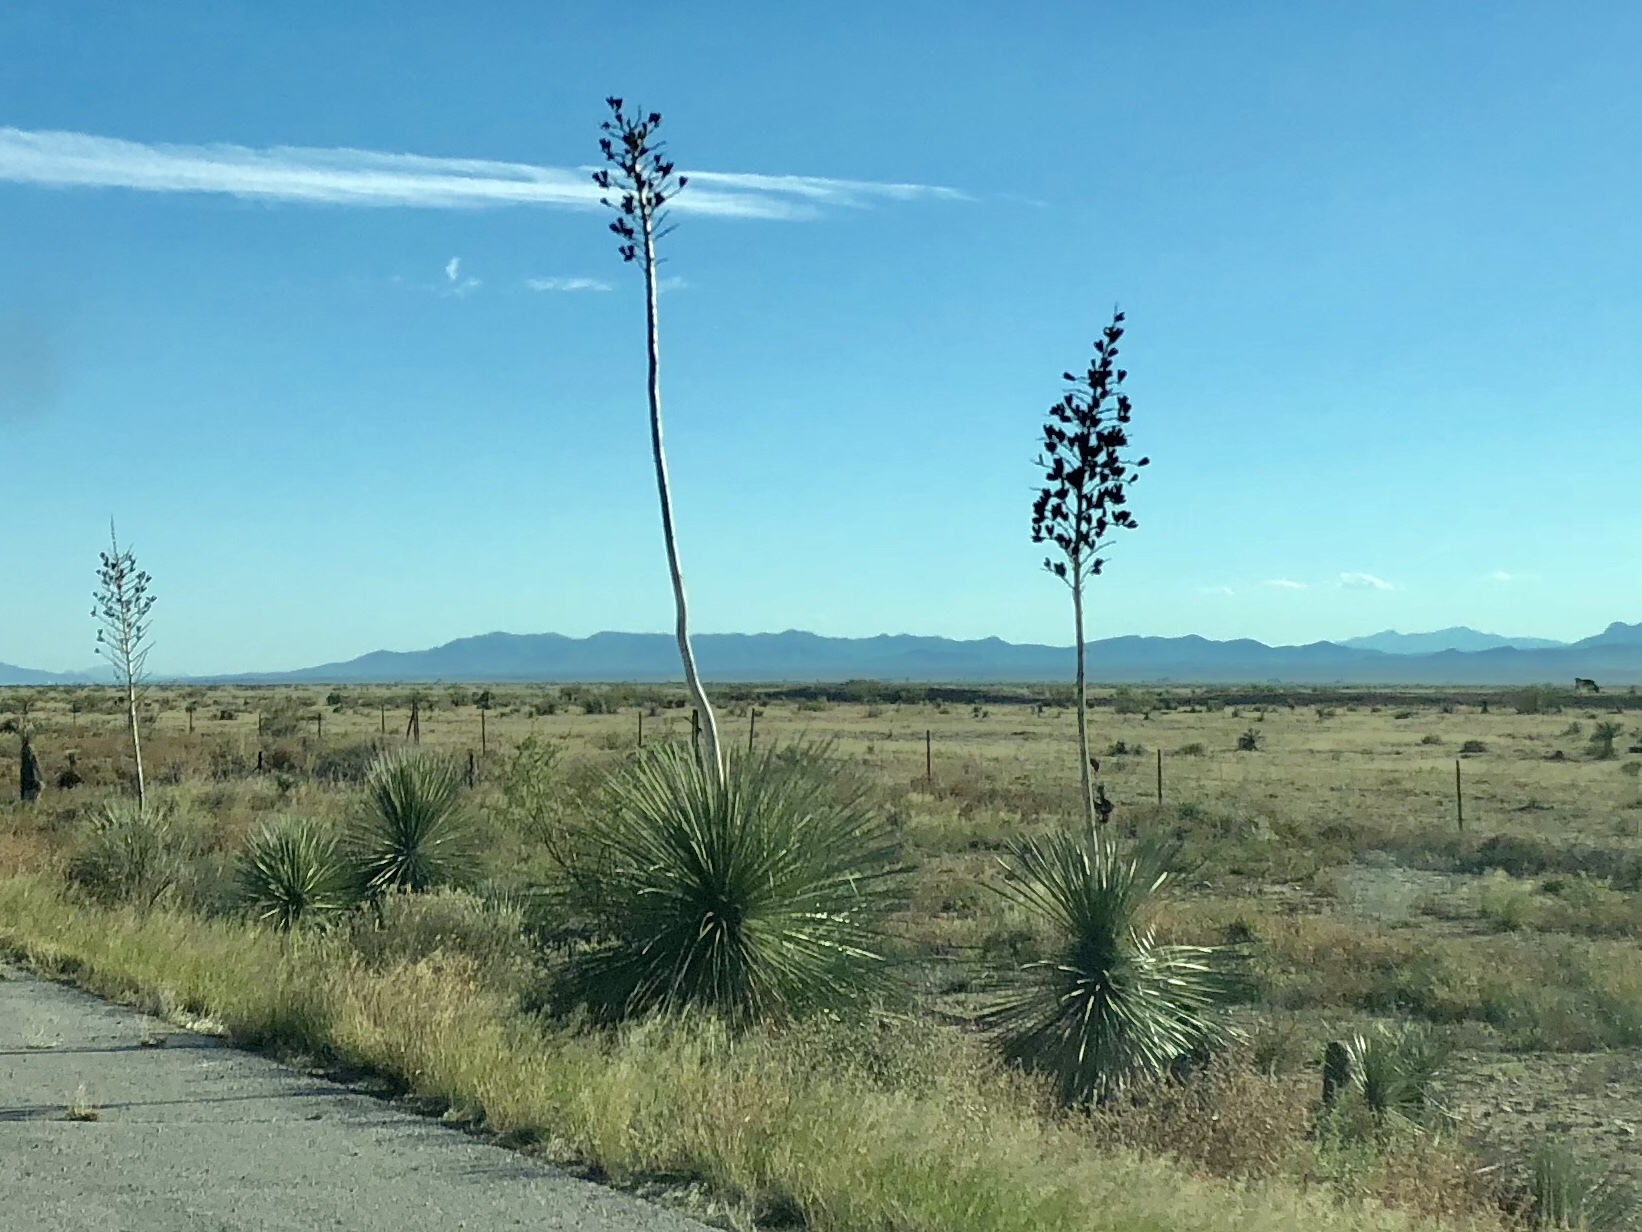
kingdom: Plantae
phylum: Tracheophyta
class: Liliopsida
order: Asparagales
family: Asparagaceae
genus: Yucca
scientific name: Yucca elata
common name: Palmella
